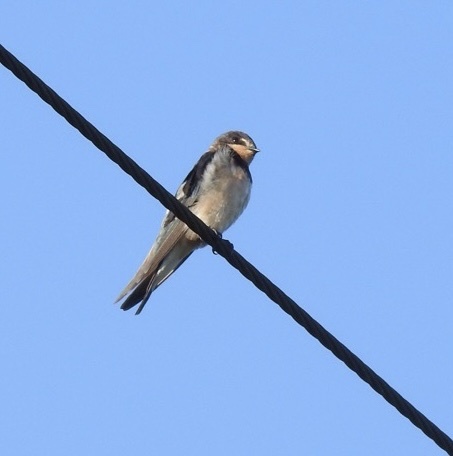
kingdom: Animalia
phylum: Chordata
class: Aves
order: Passeriformes
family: Hirundinidae
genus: Hirundo
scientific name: Hirundo rustica
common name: Barn swallow
